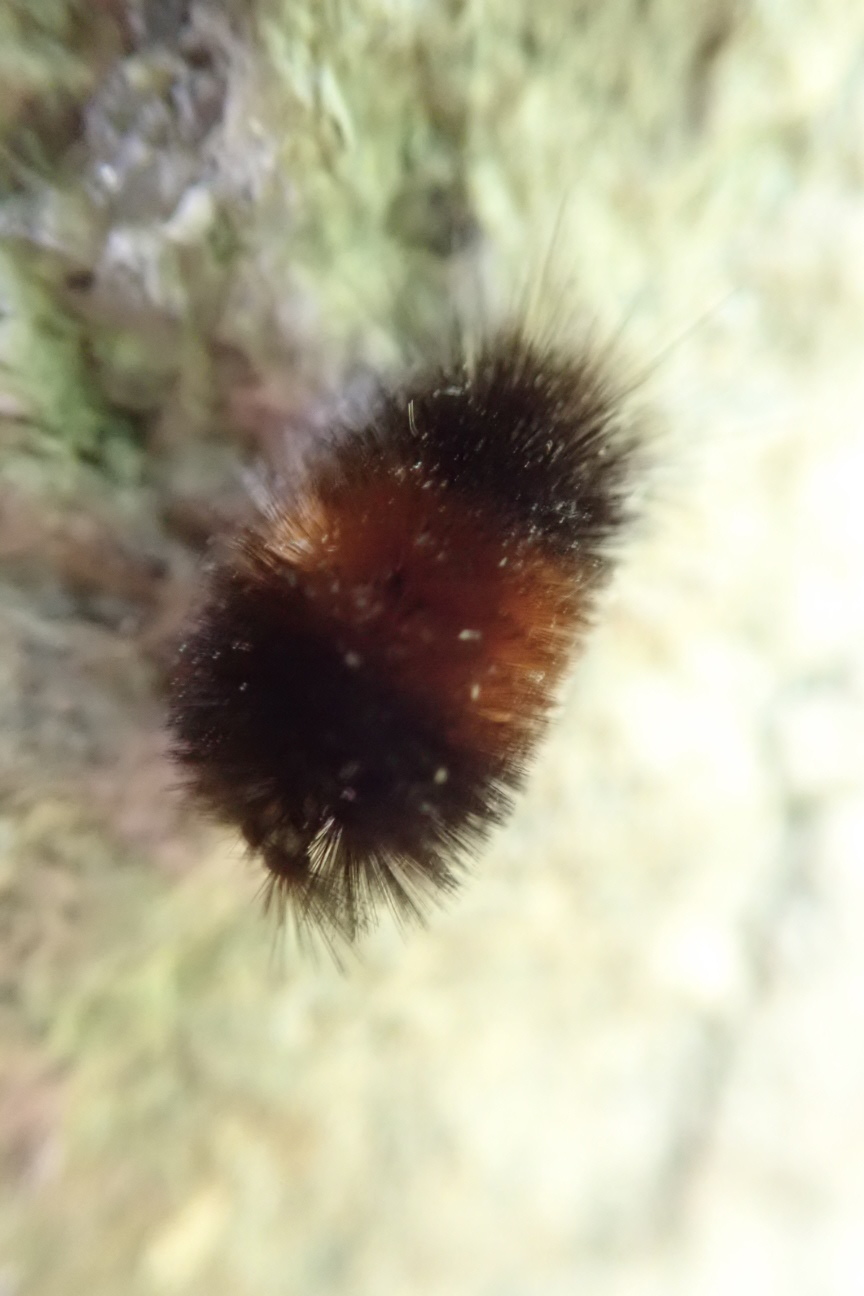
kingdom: Animalia
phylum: Arthropoda
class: Insecta
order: Lepidoptera
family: Erebidae
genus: Pyrrharctia
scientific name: Pyrrharctia isabella
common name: Isabella tiger moth
